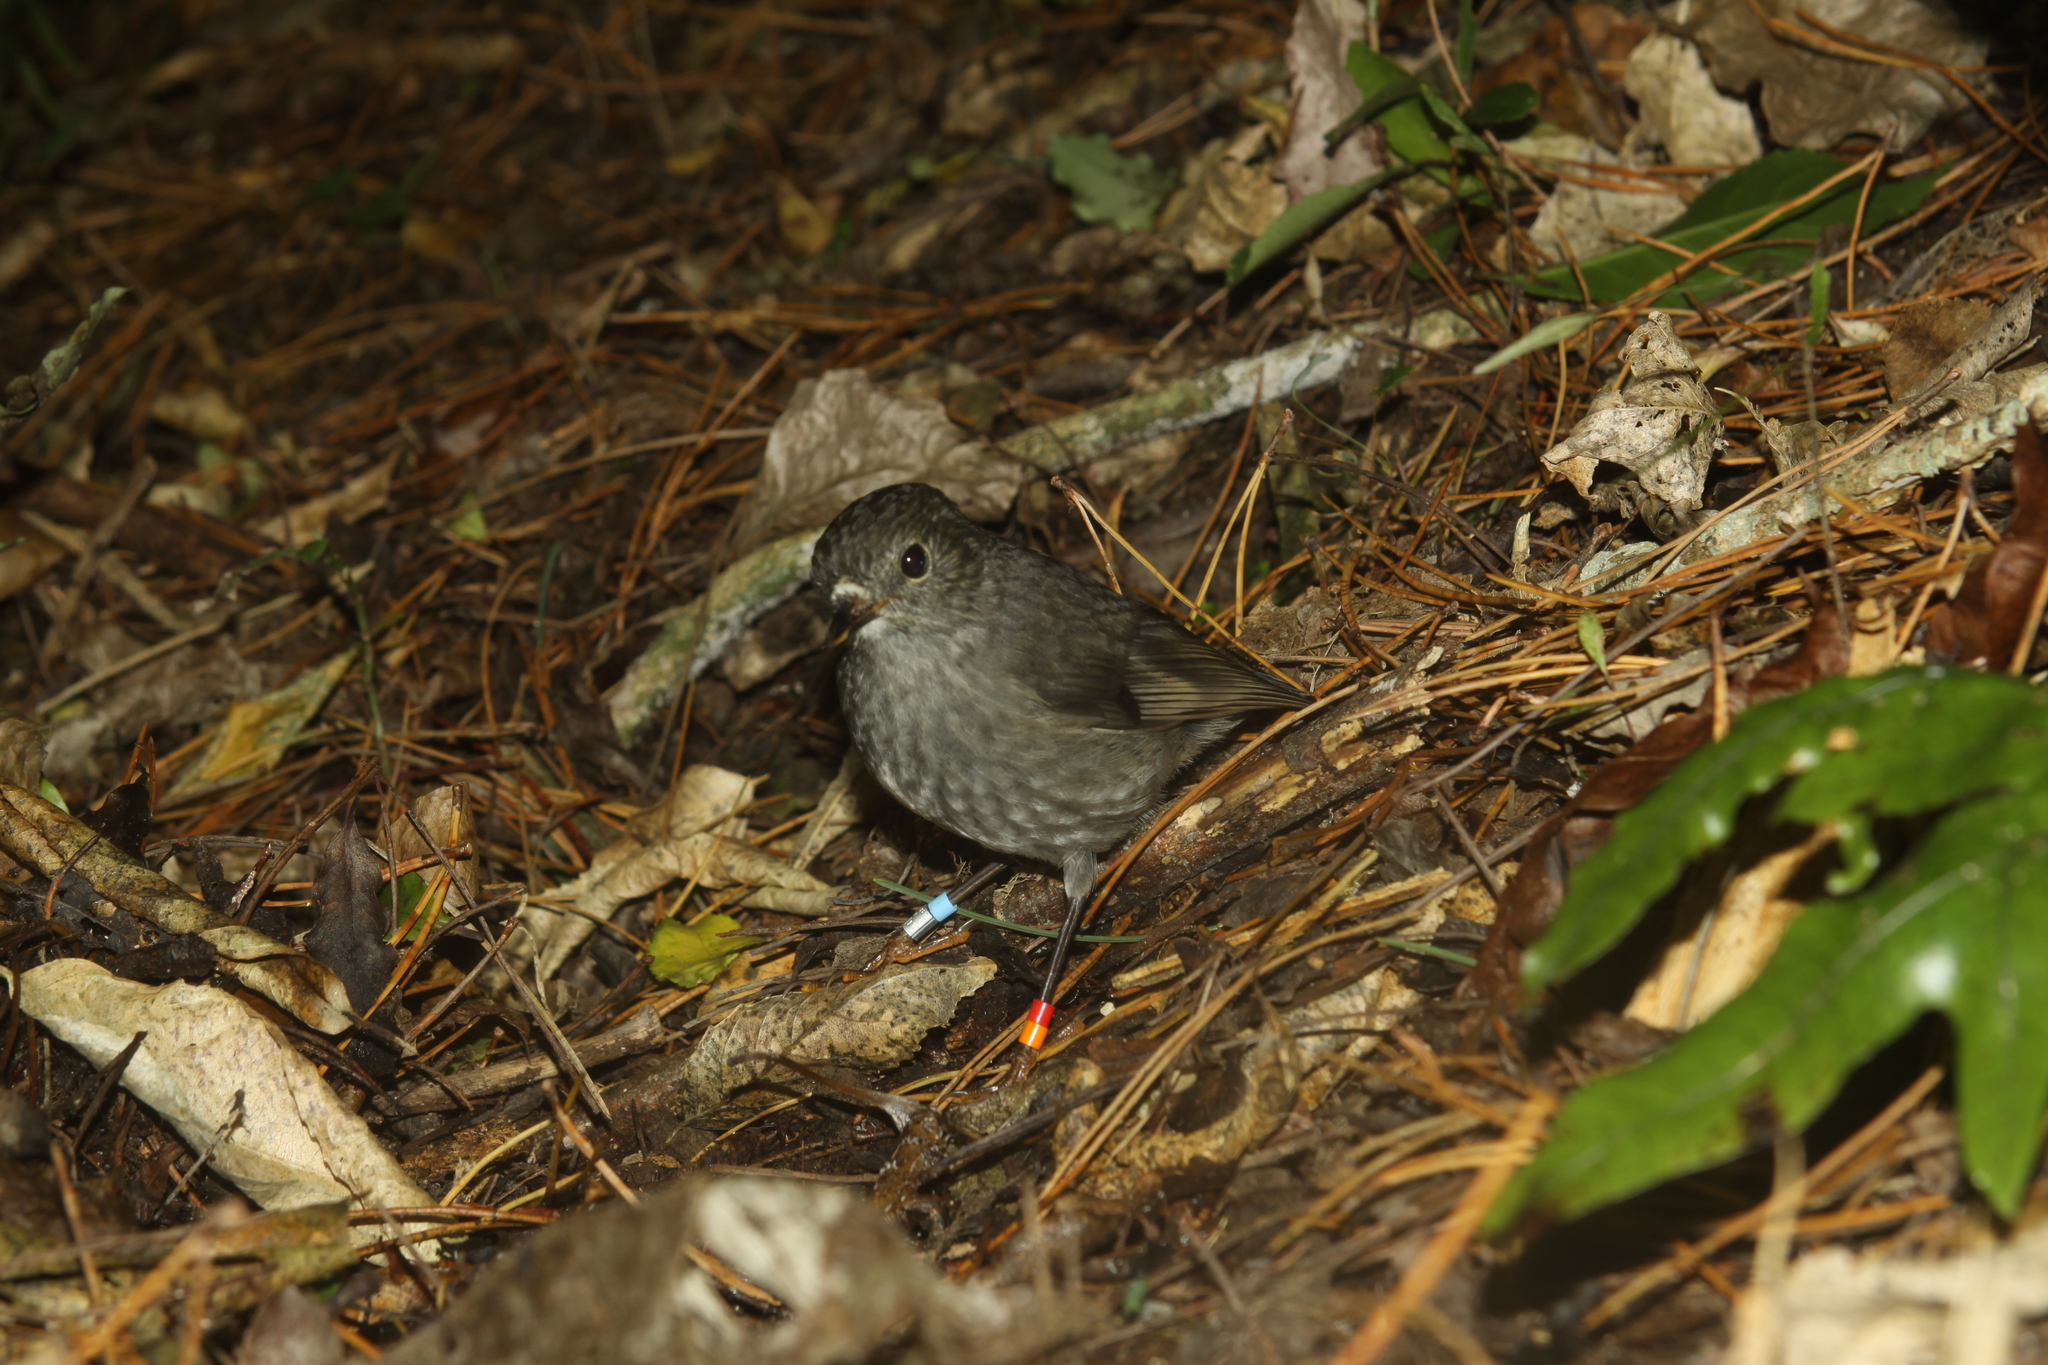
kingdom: Animalia
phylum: Chordata
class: Aves
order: Passeriformes
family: Petroicidae
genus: Petroica
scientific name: Petroica australis
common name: New zealand robin
